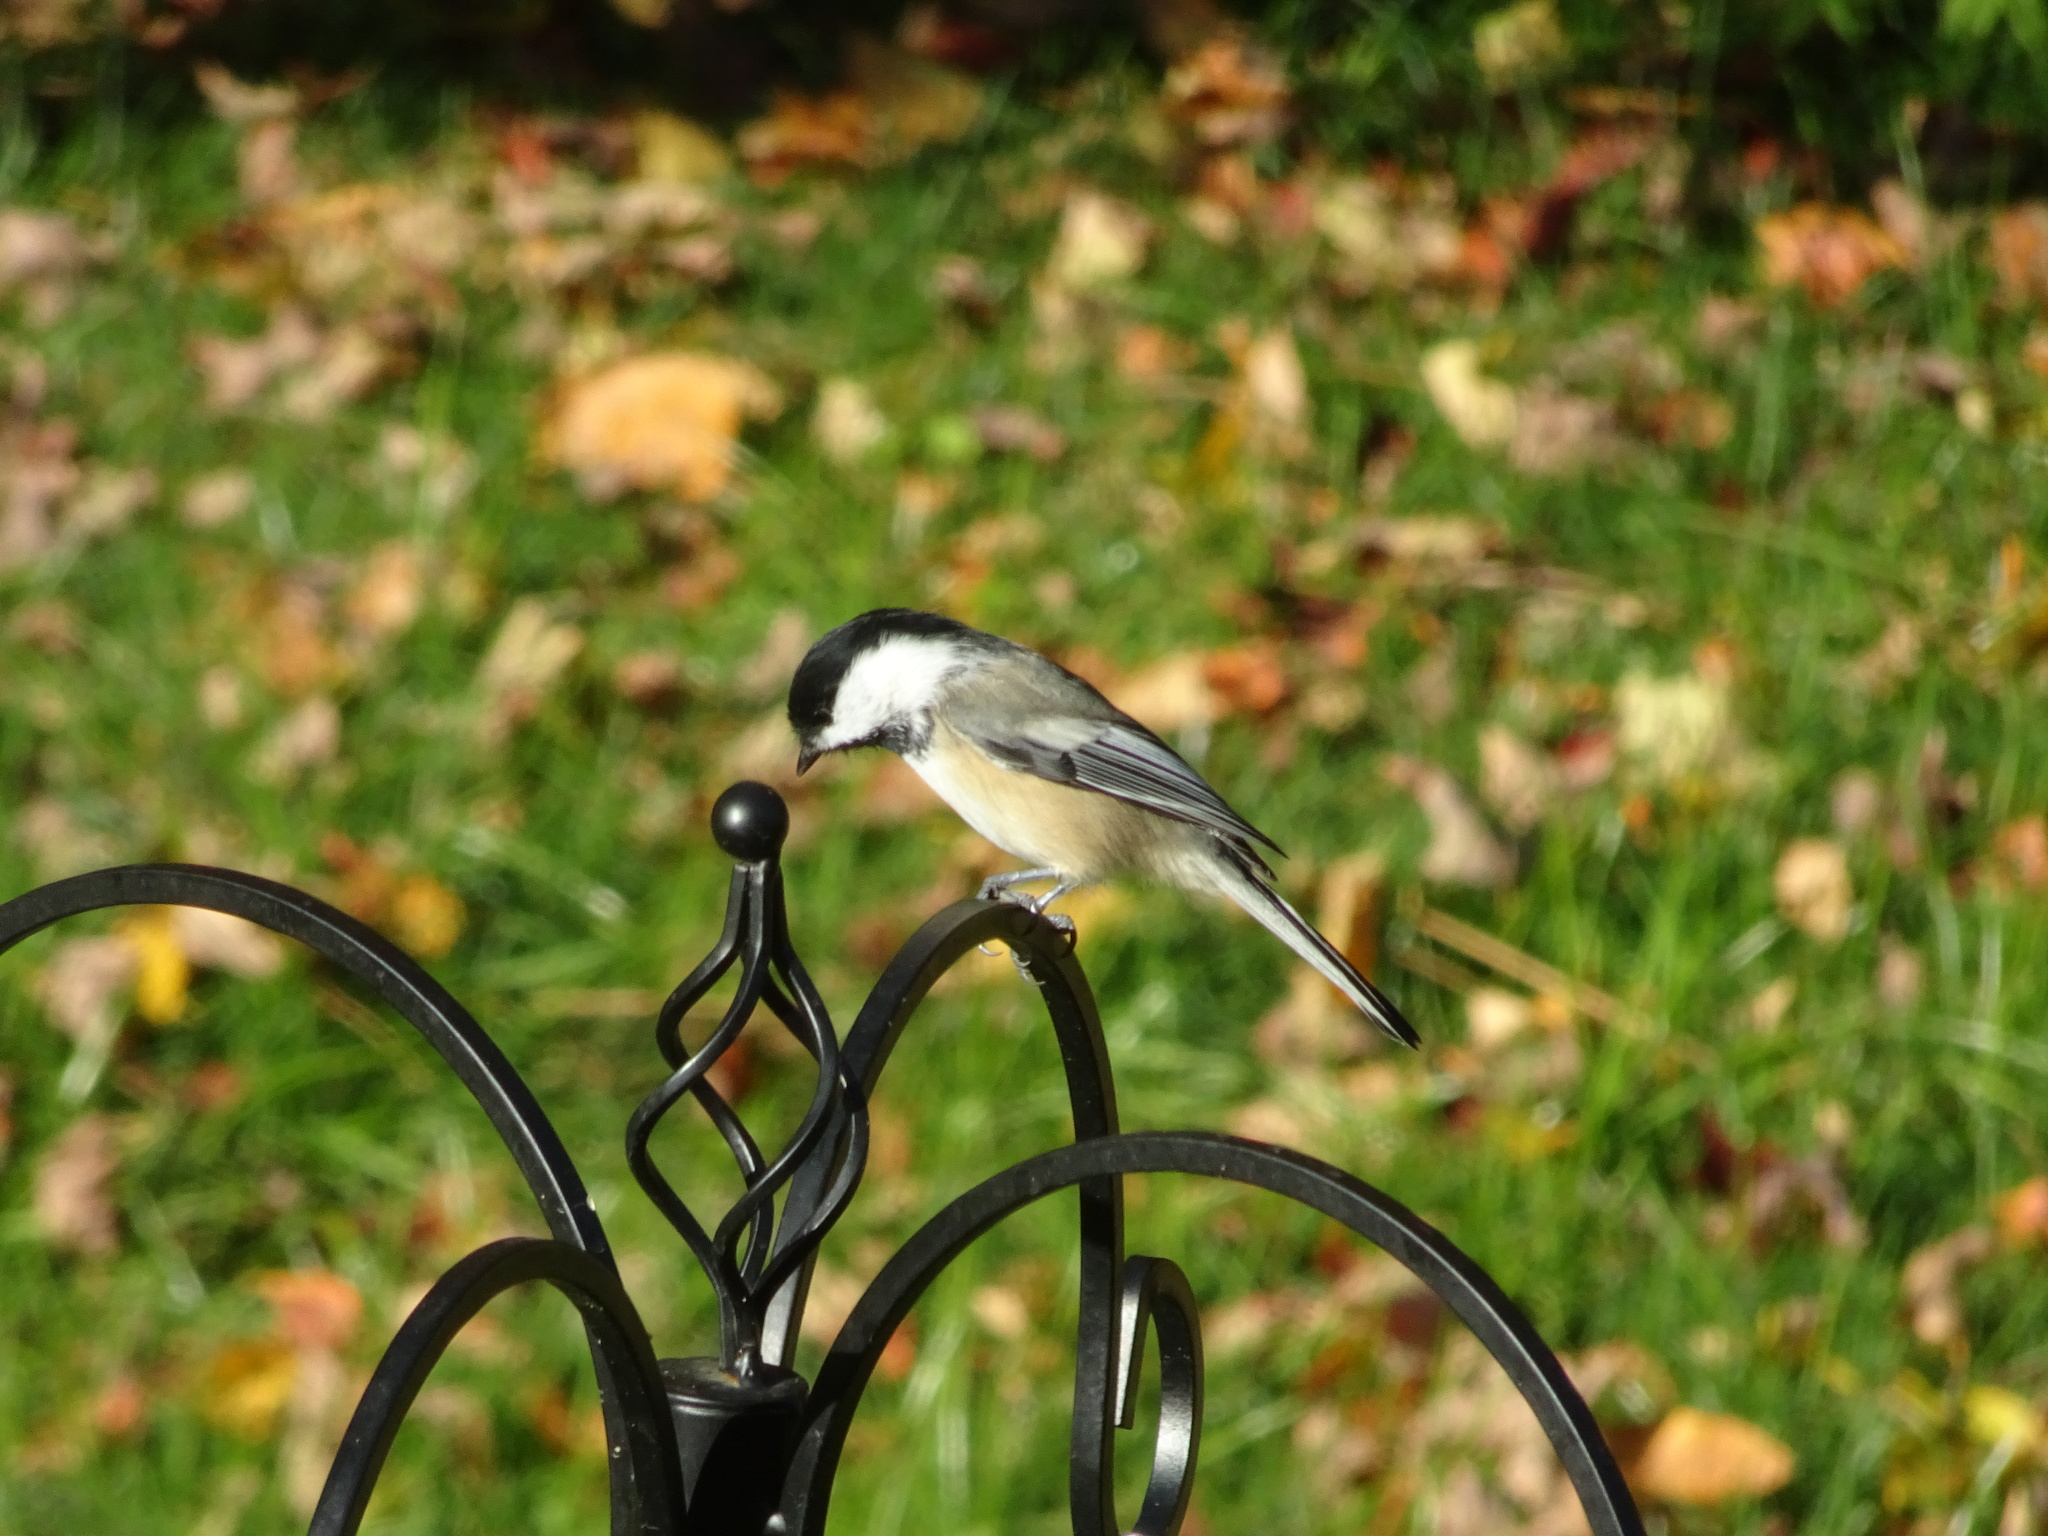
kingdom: Animalia
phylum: Chordata
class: Aves
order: Passeriformes
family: Paridae
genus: Poecile
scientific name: Poecile atricapillus
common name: Black-capped chickadee
